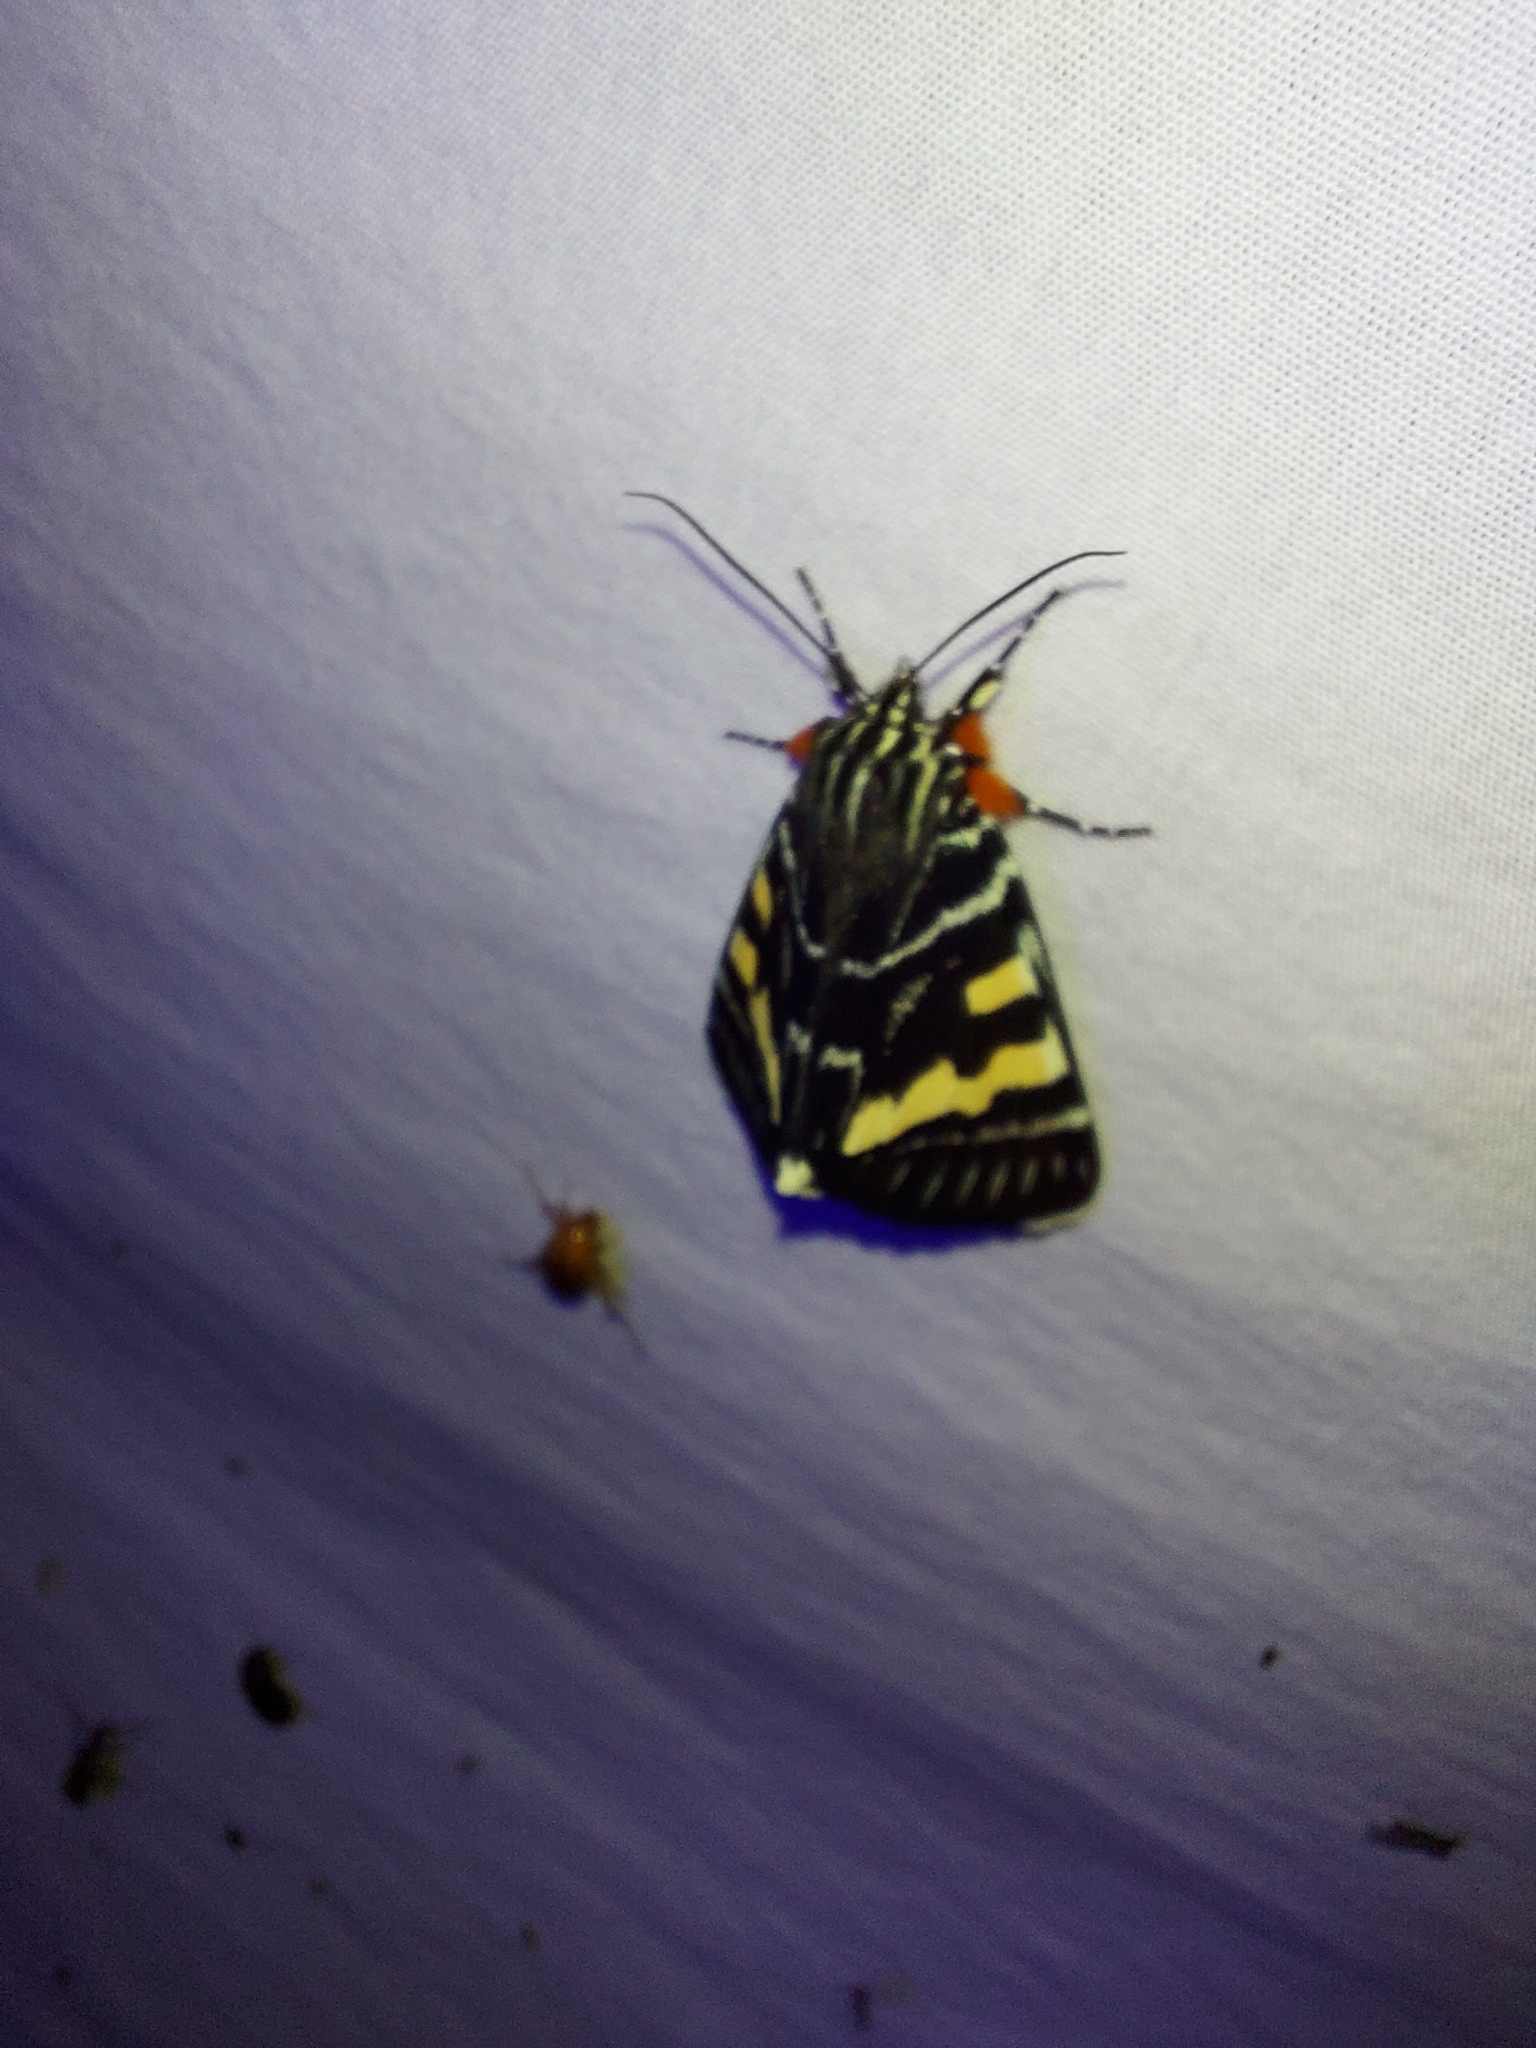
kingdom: Animalia
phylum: Arthropoda
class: Insecta
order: Lepidoptera
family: Noctuidae
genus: Phalaenoides
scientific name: Phalaenoides glycinae
